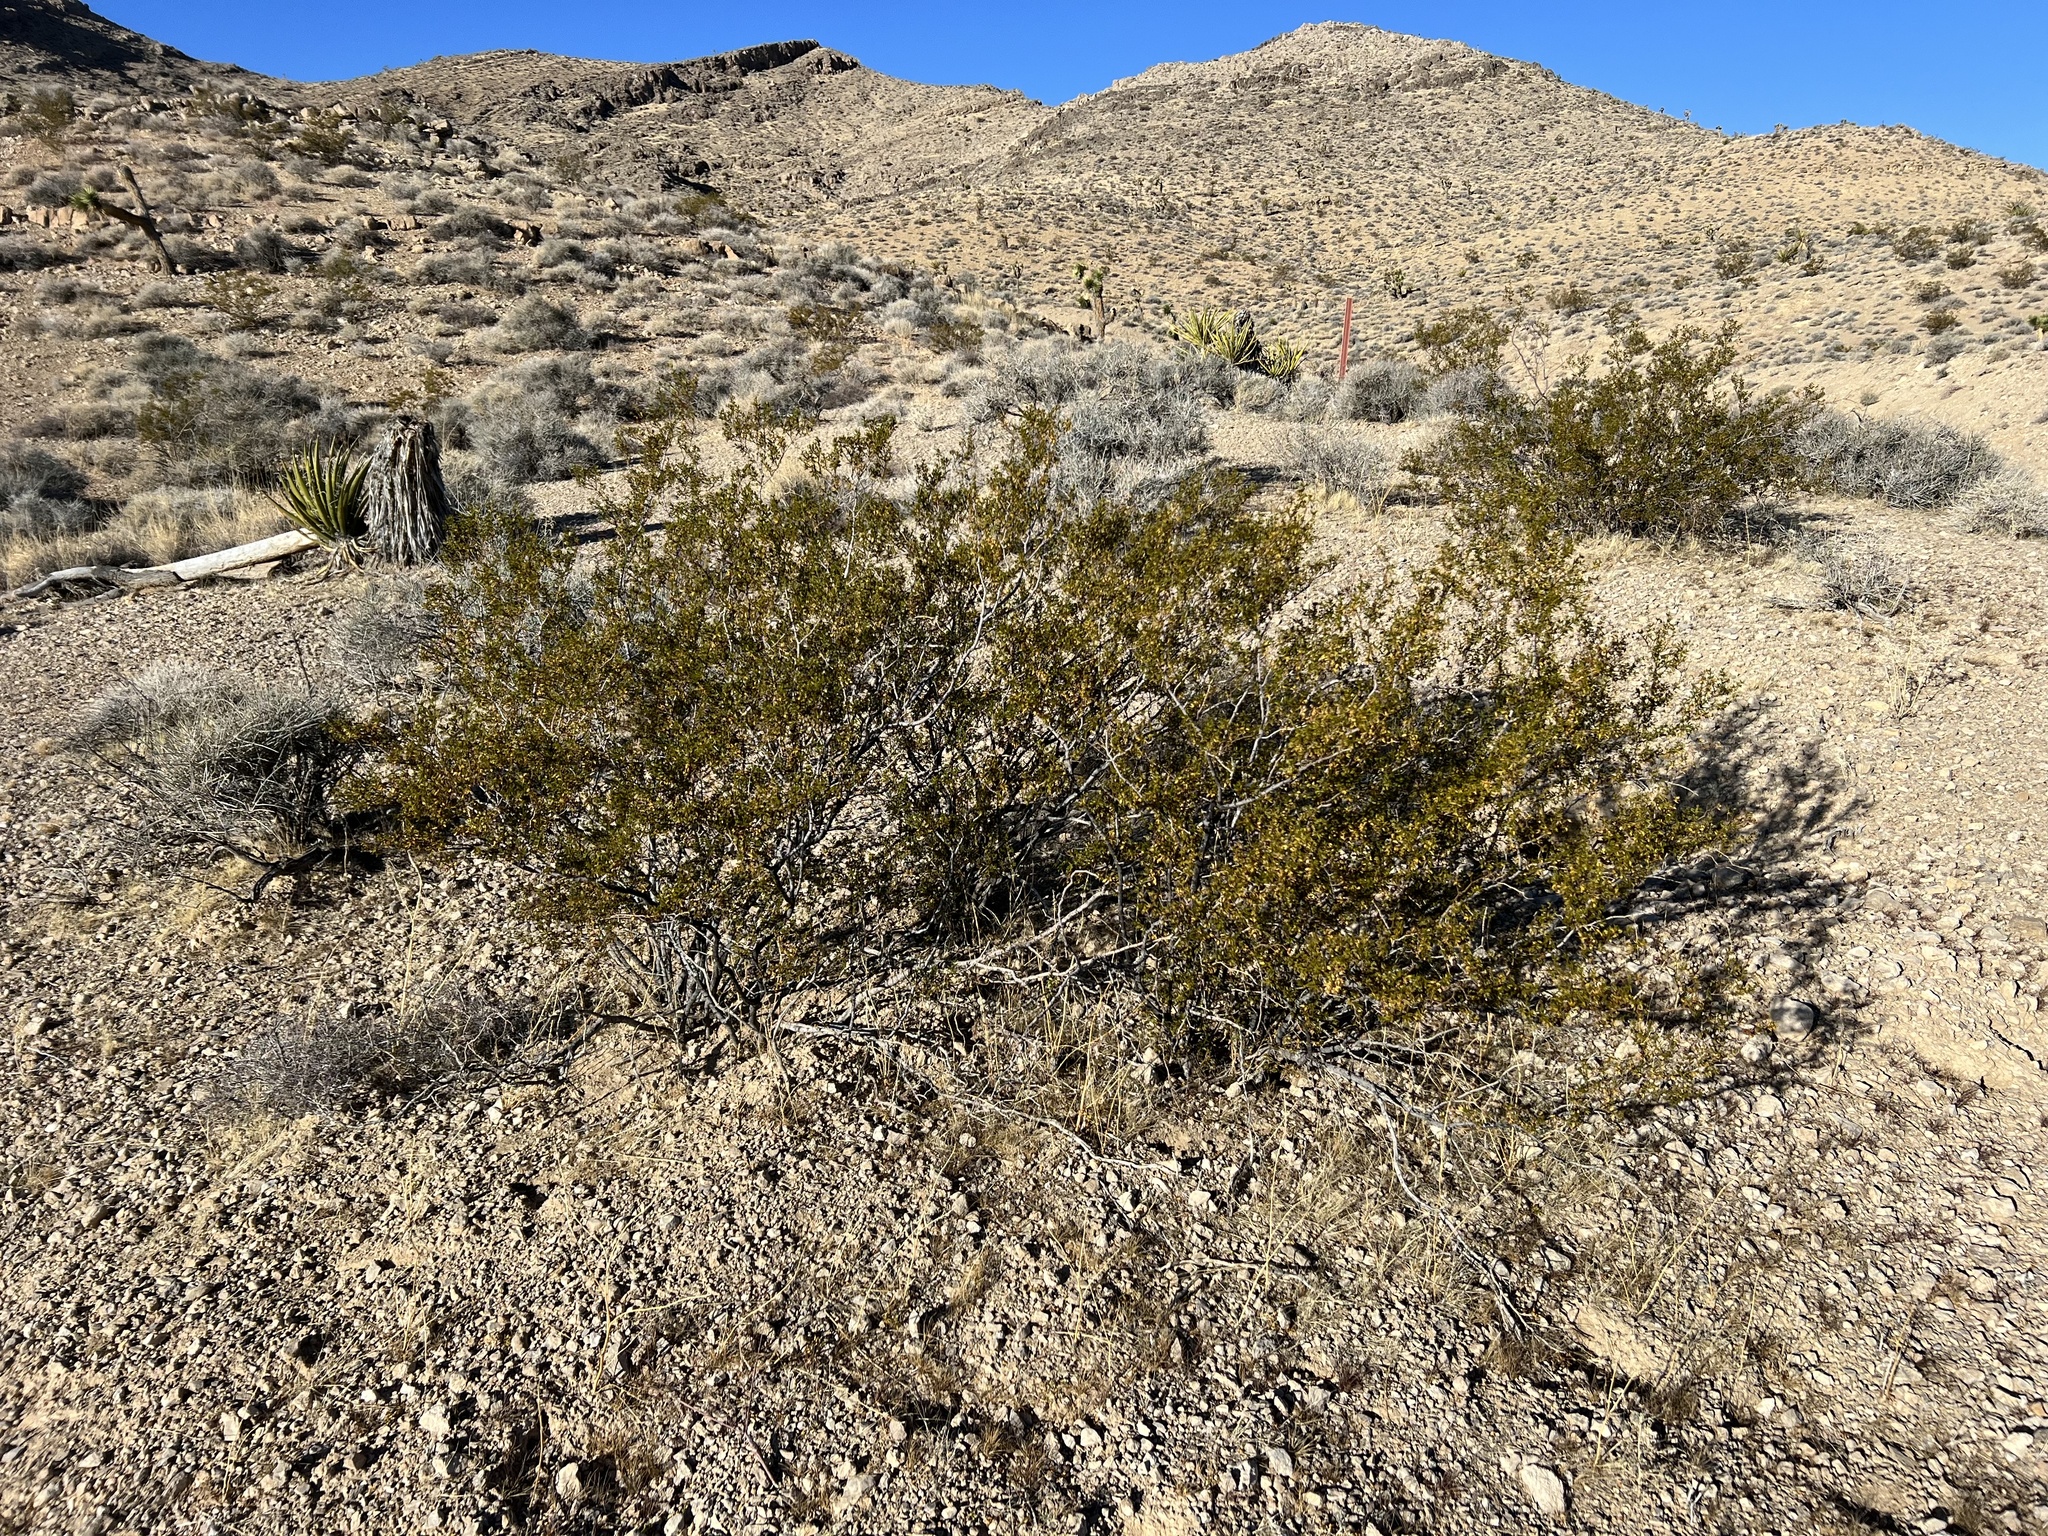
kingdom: Plantae
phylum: Tracheophyta
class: Magnoliopsida
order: Zygophyllales
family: Zygophyllaceae
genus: Larrea
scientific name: Larrea tridentata
